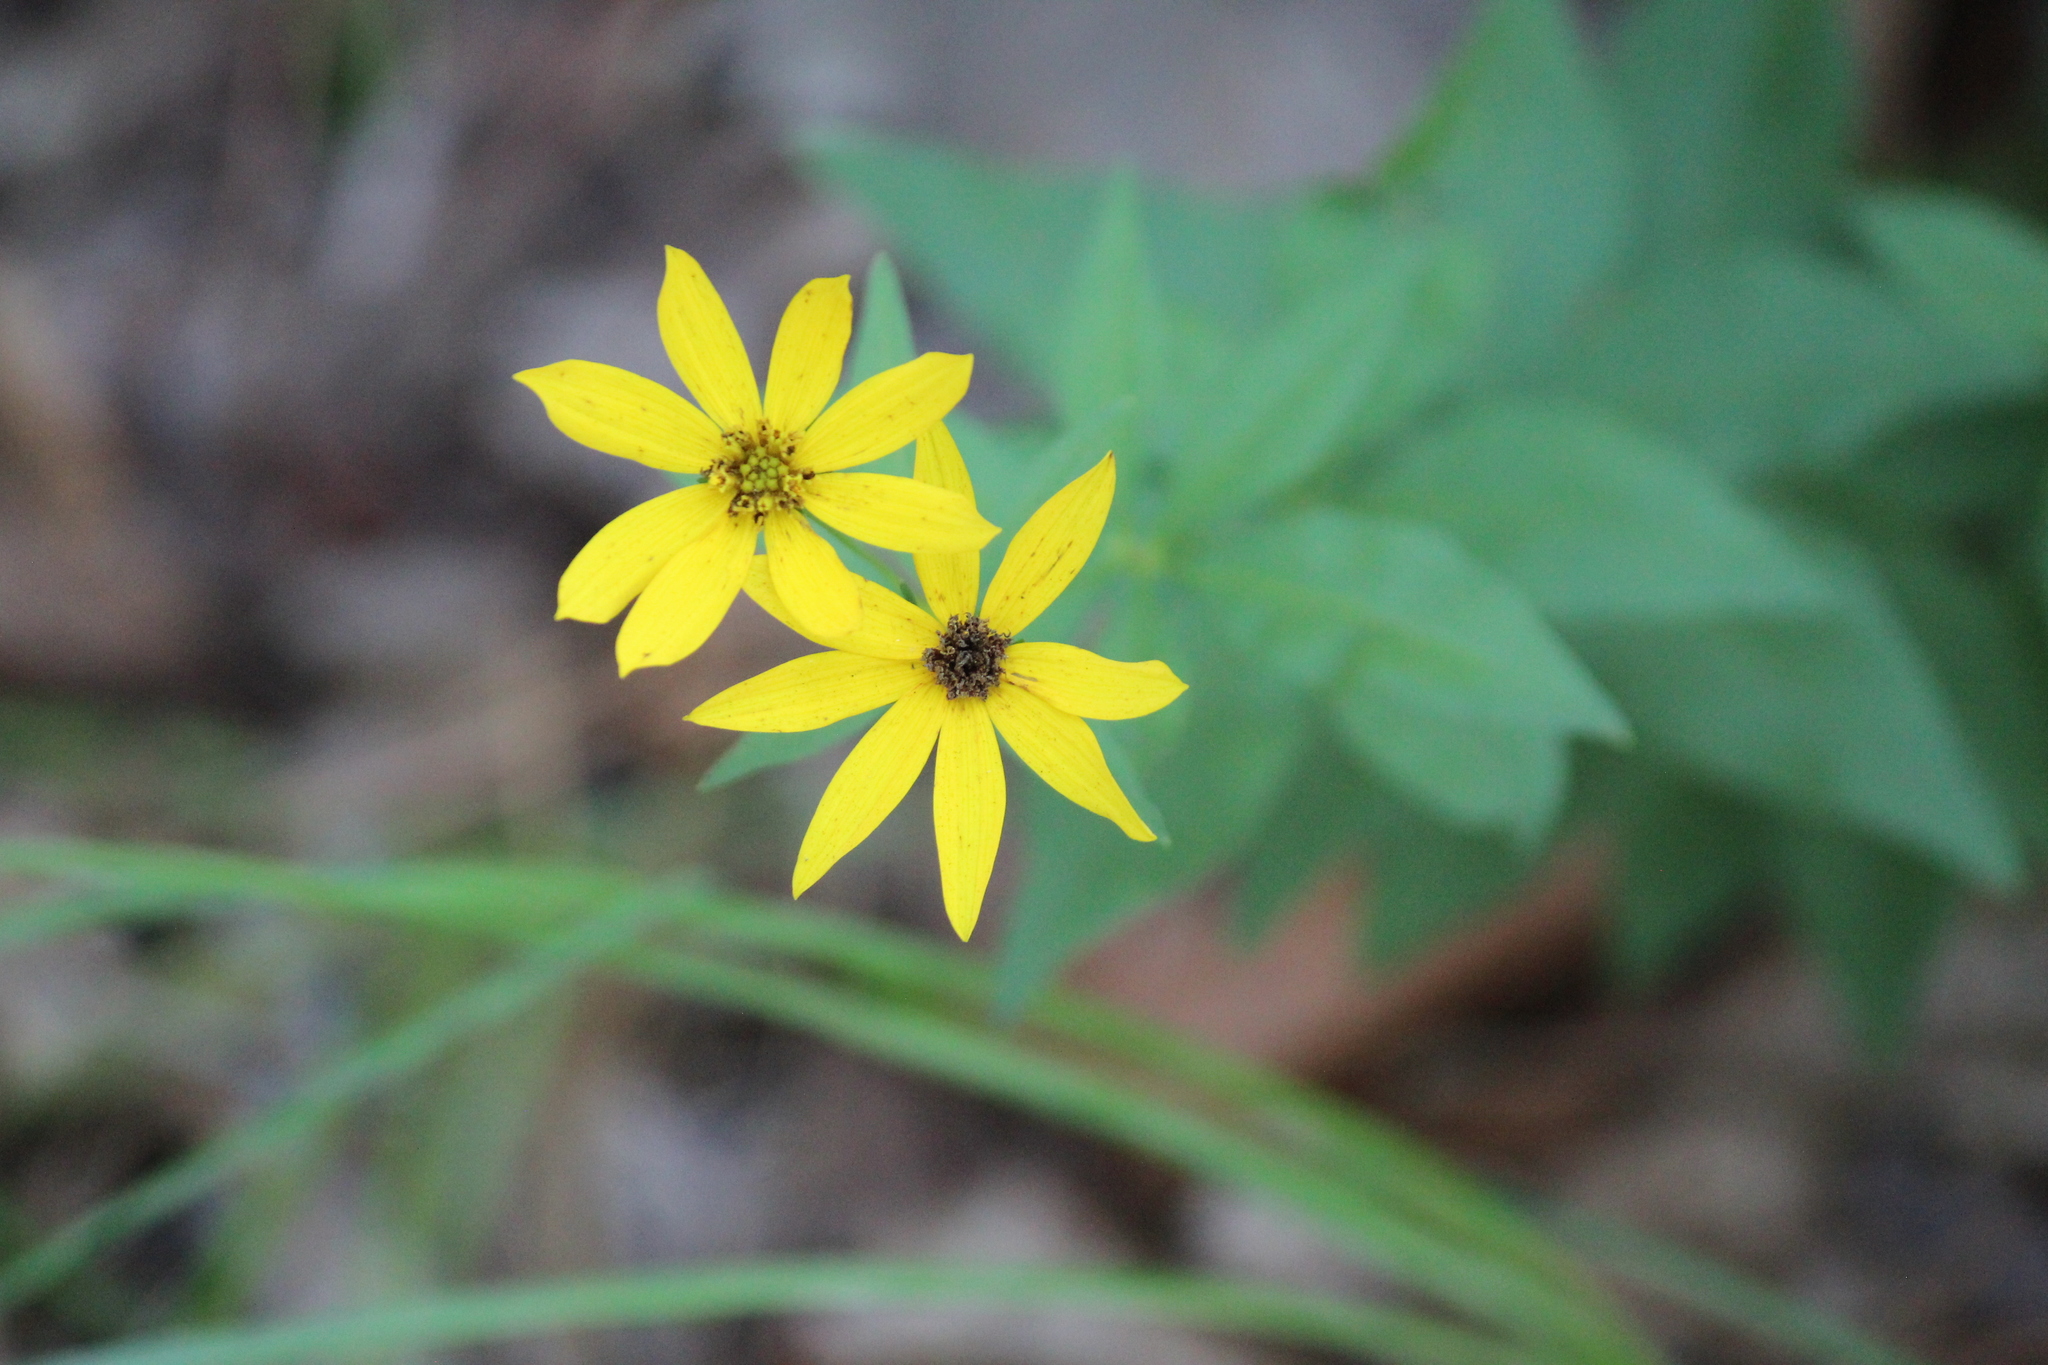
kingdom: Plantae
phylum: Tracheophyta
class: Magnoliopsida
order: Asterales
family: Asteraceae
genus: Coreopsis
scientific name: Coreopsis major
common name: Forest tickseed
